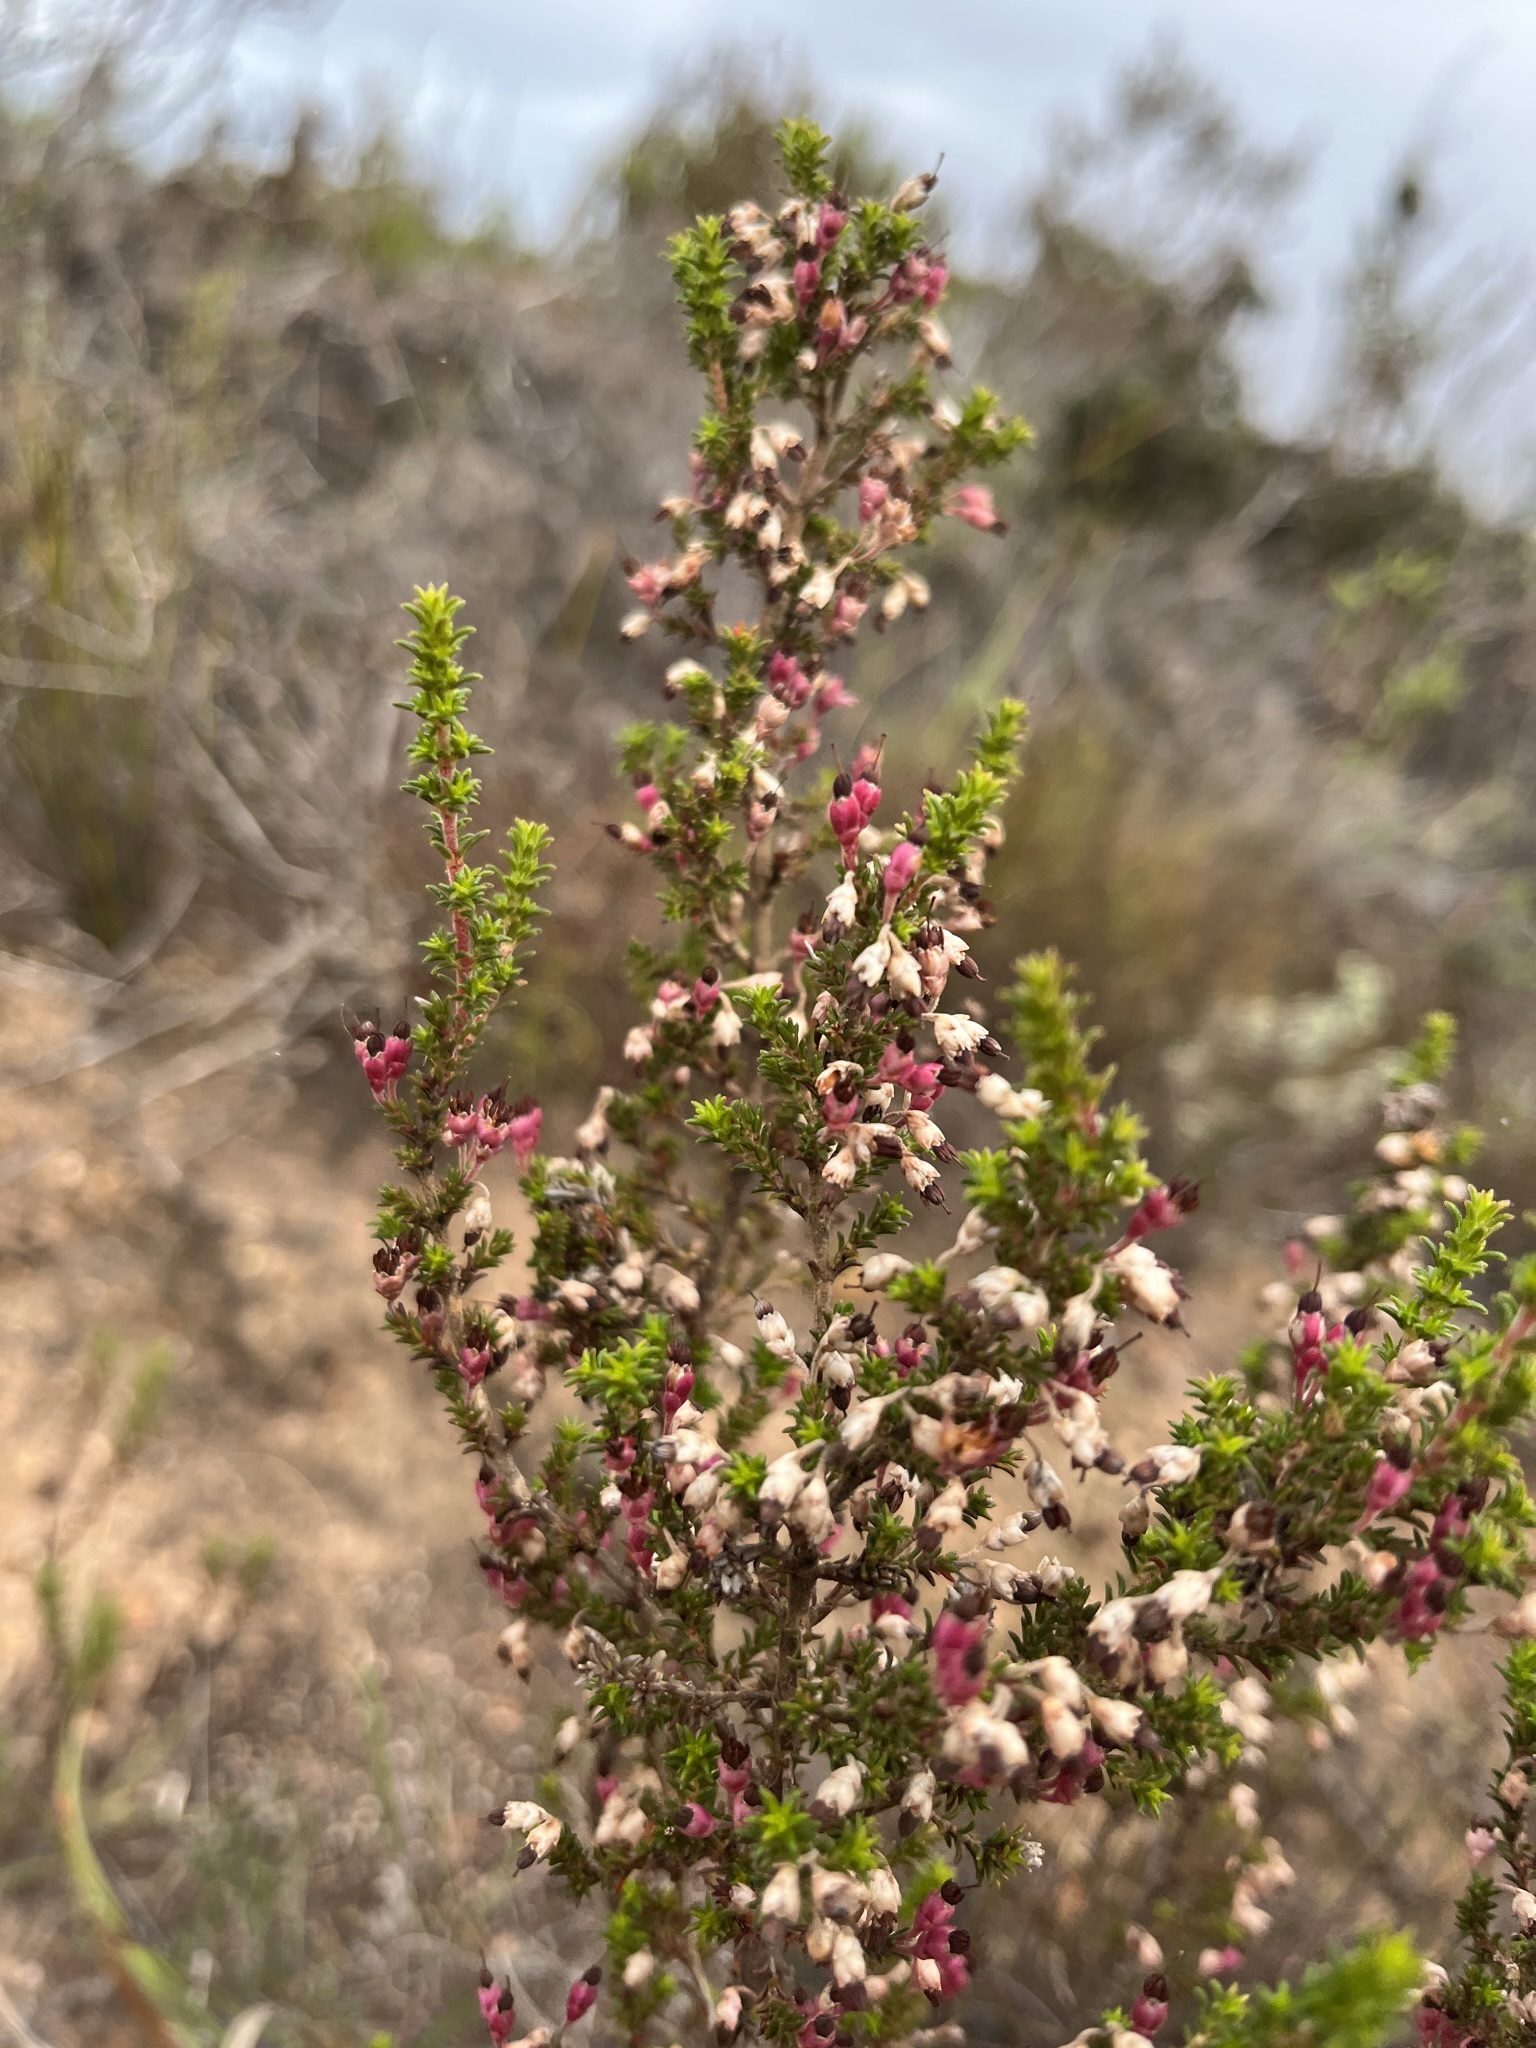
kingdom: Plantae
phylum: Tracheophyta
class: Magnoliopsida
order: Ericales
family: Ericaceae
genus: Erica
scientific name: Erica placentiflora
